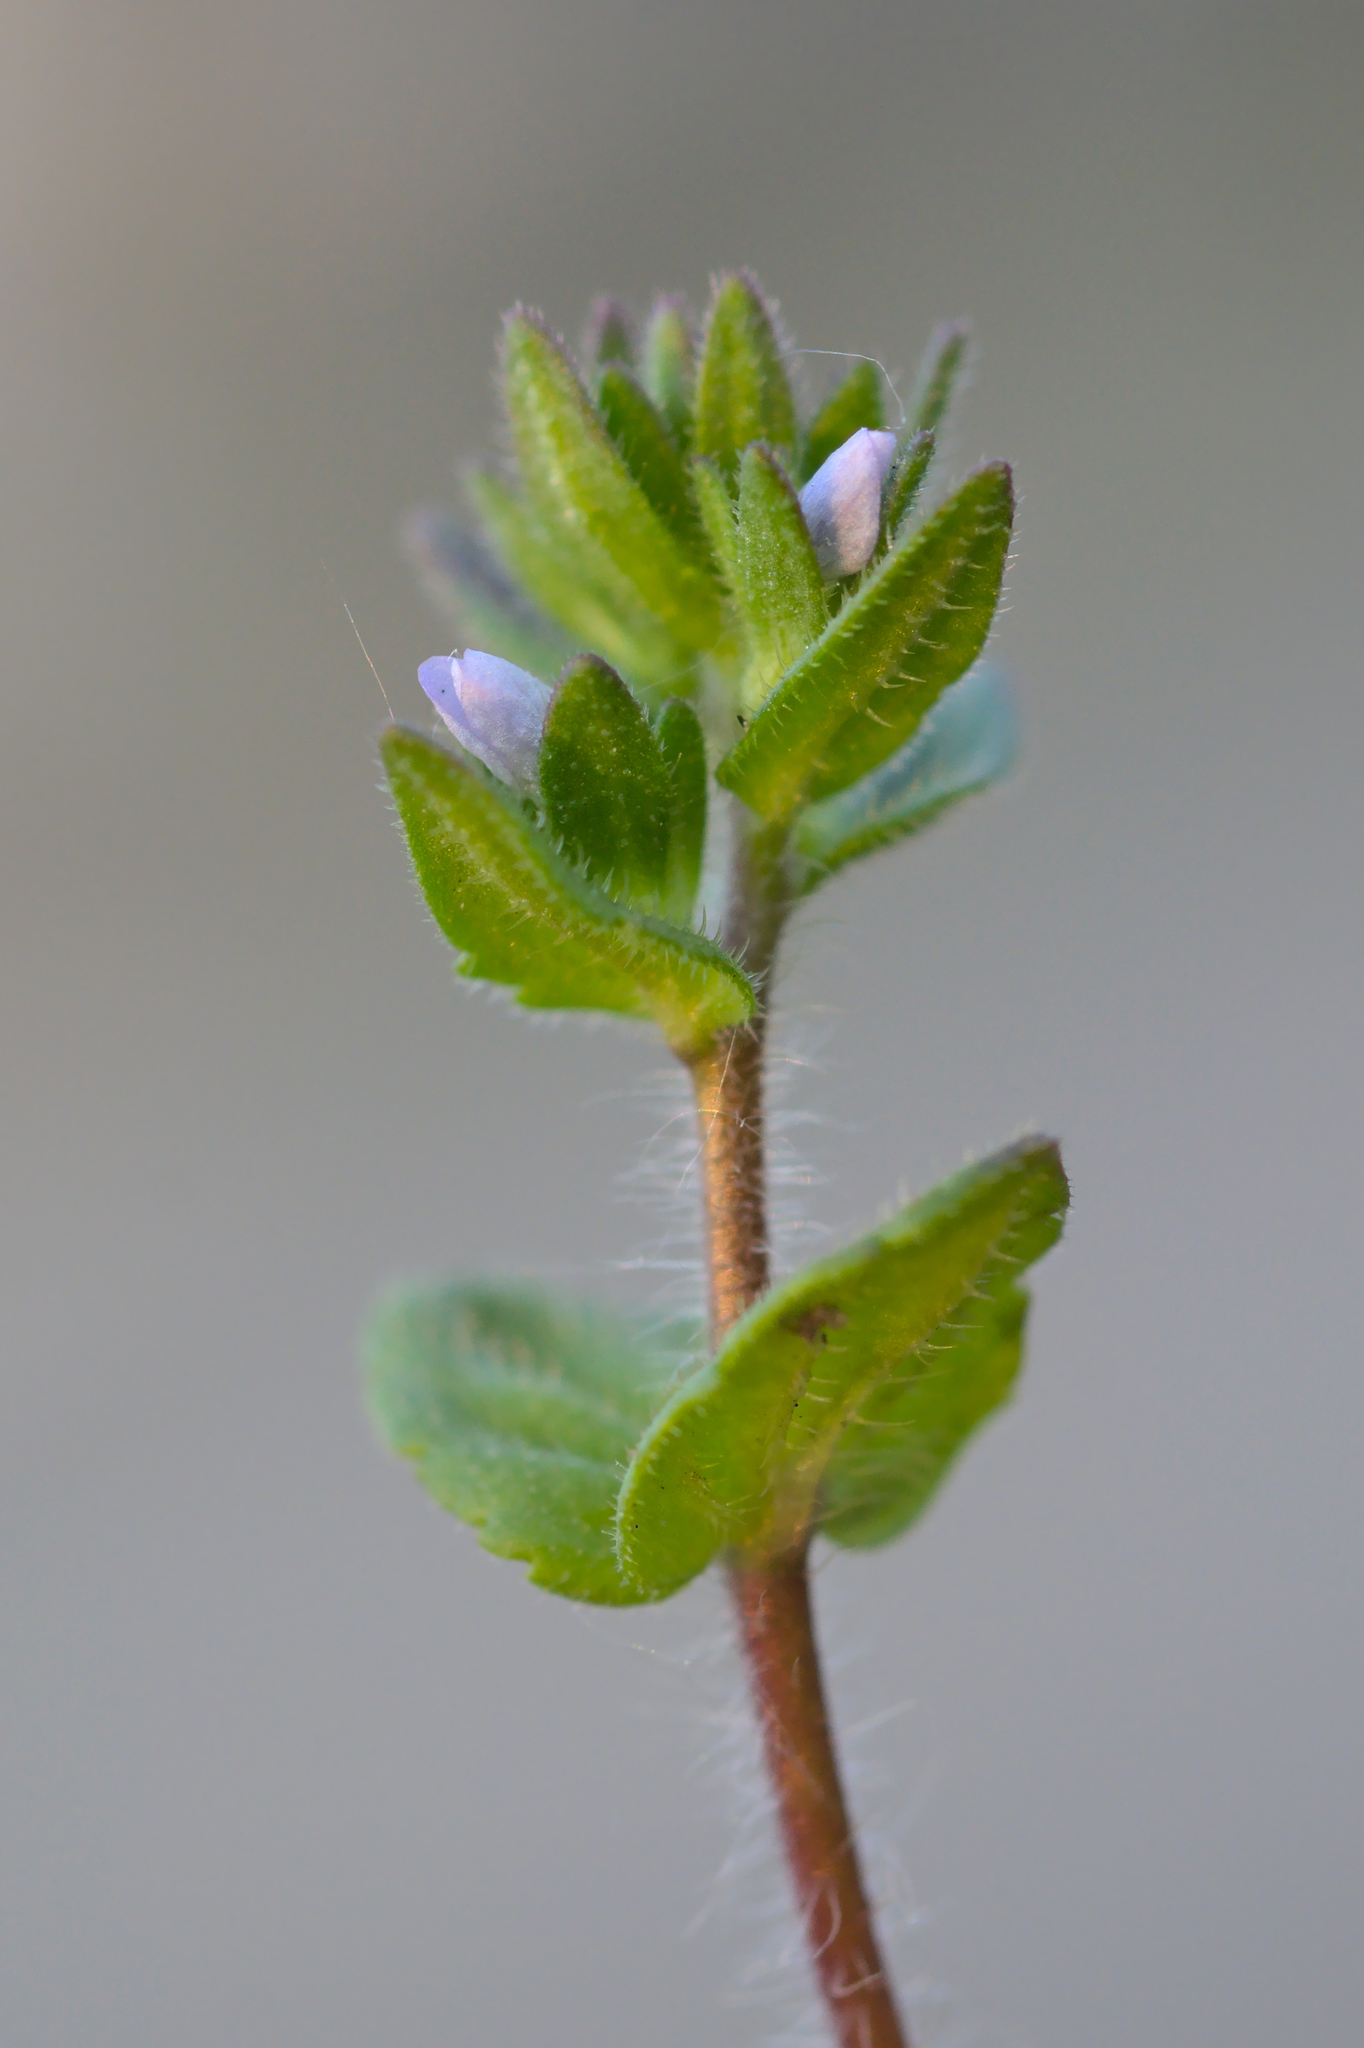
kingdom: Plantae
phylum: Tracheophyta
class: Magnoliopsida
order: Lamiales
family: Plantaginaceae
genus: Veronica
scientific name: Veronica arvensis
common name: Corn speedwell
